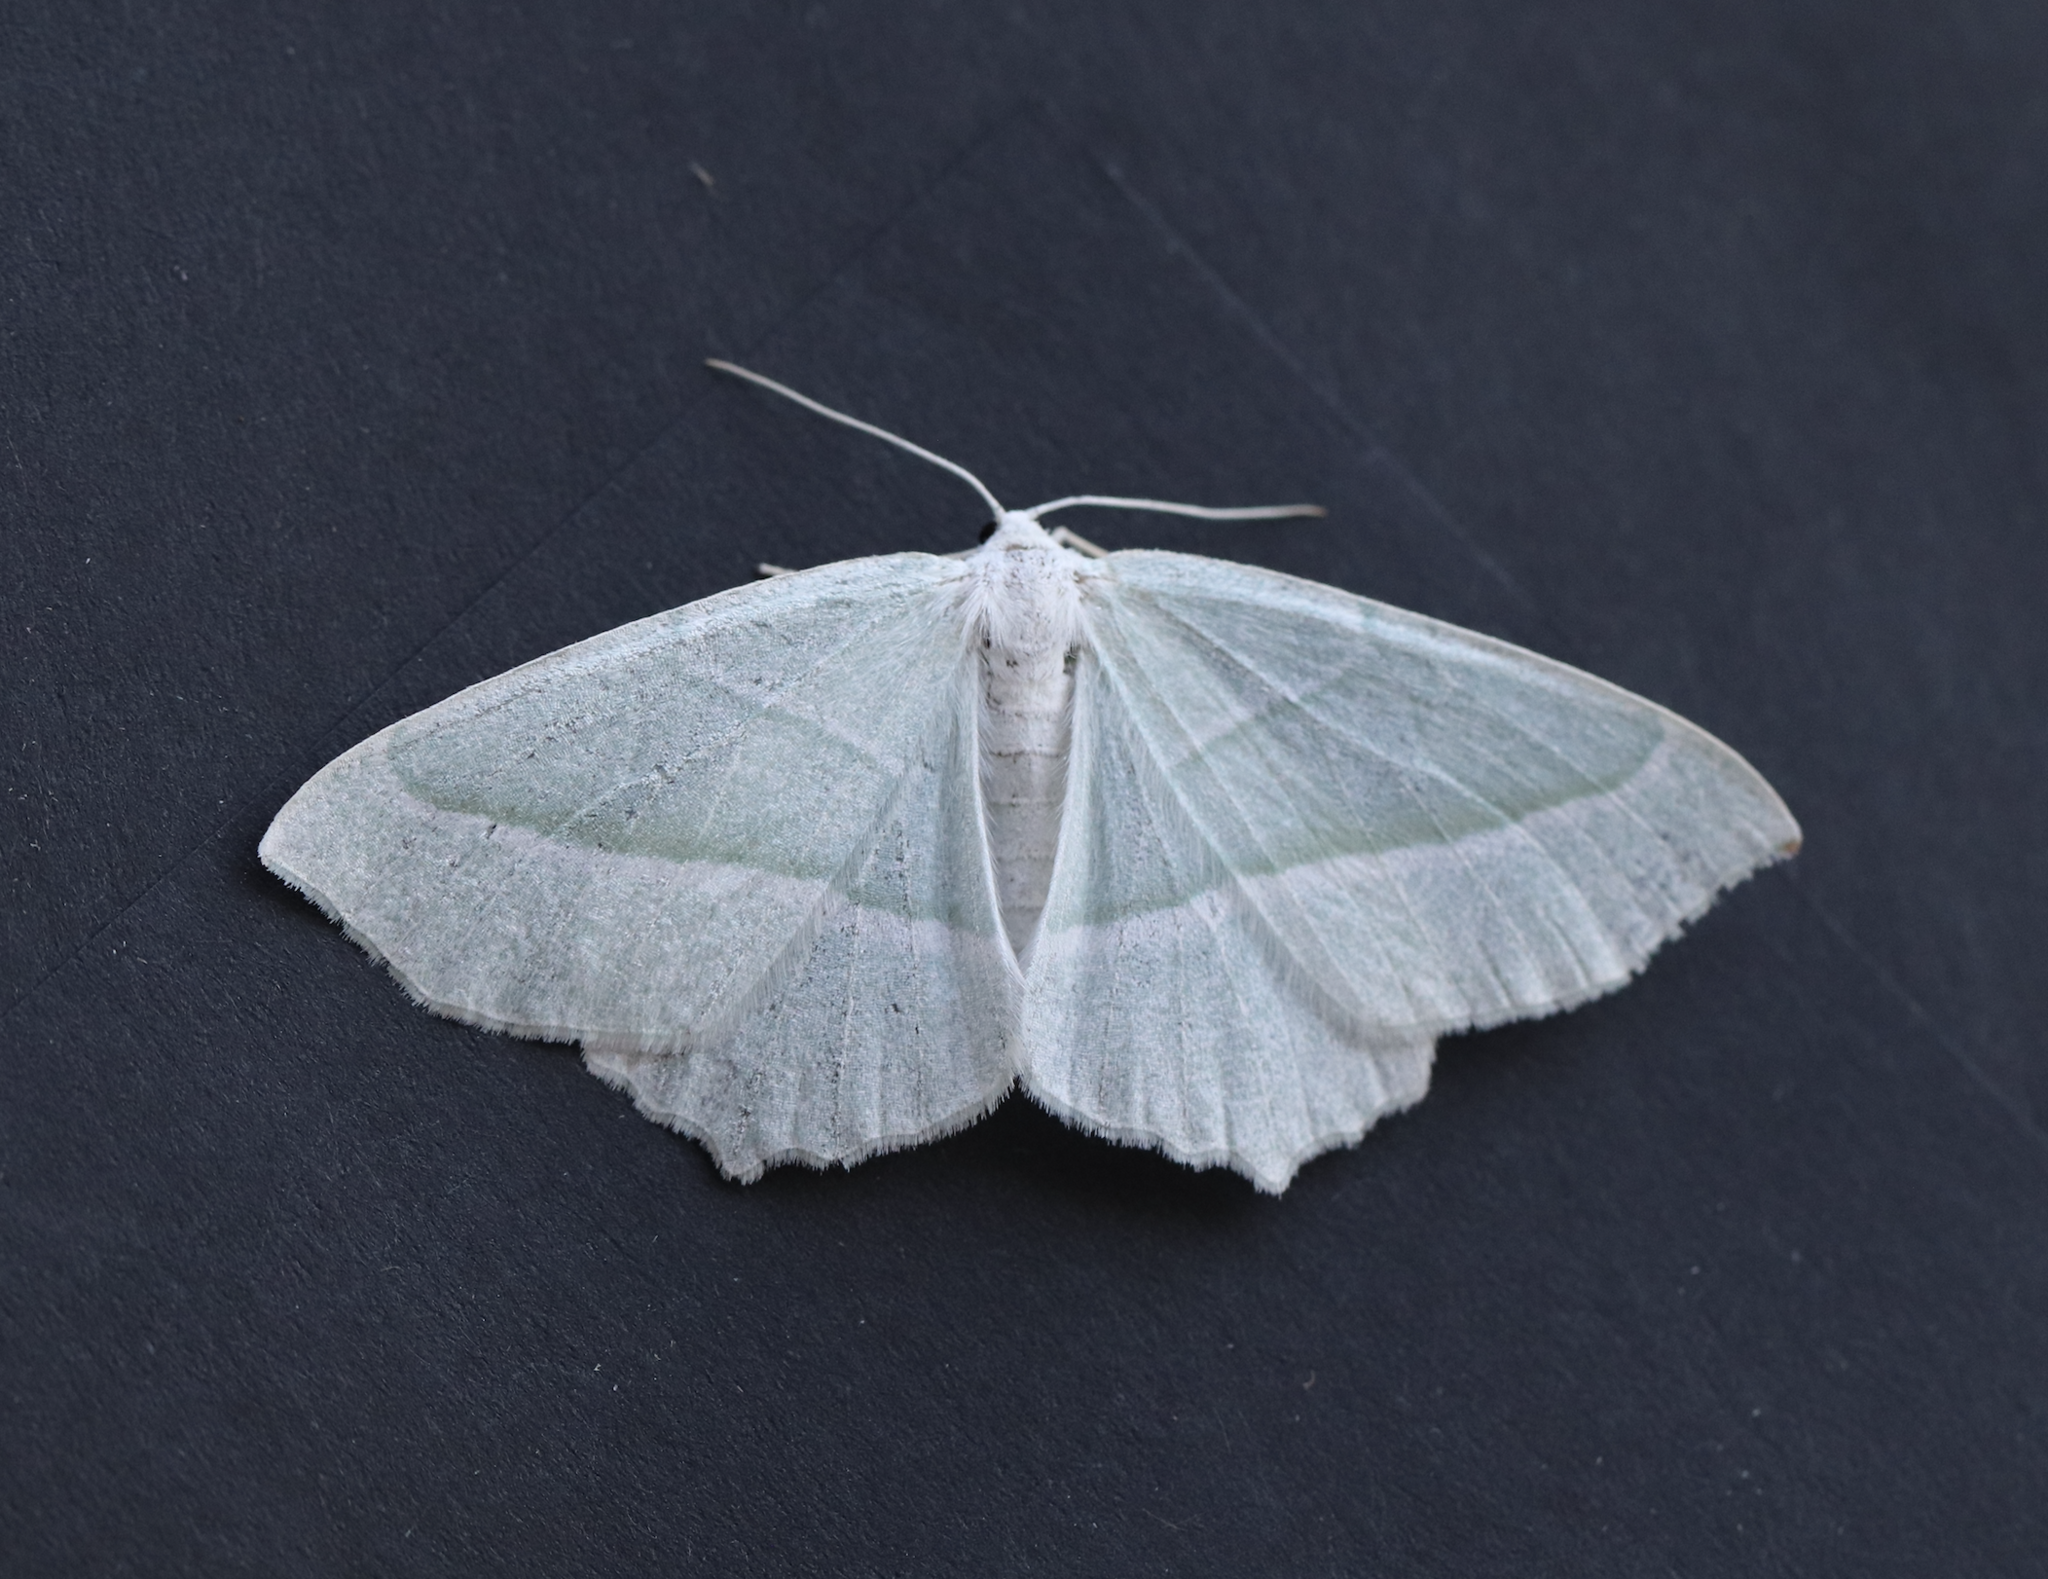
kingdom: Animalia
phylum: Arthropoda
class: Insecta
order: Lepidoptera
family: Geometridae
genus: Campaea
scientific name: Campaea margaritaria
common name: Light emerald
